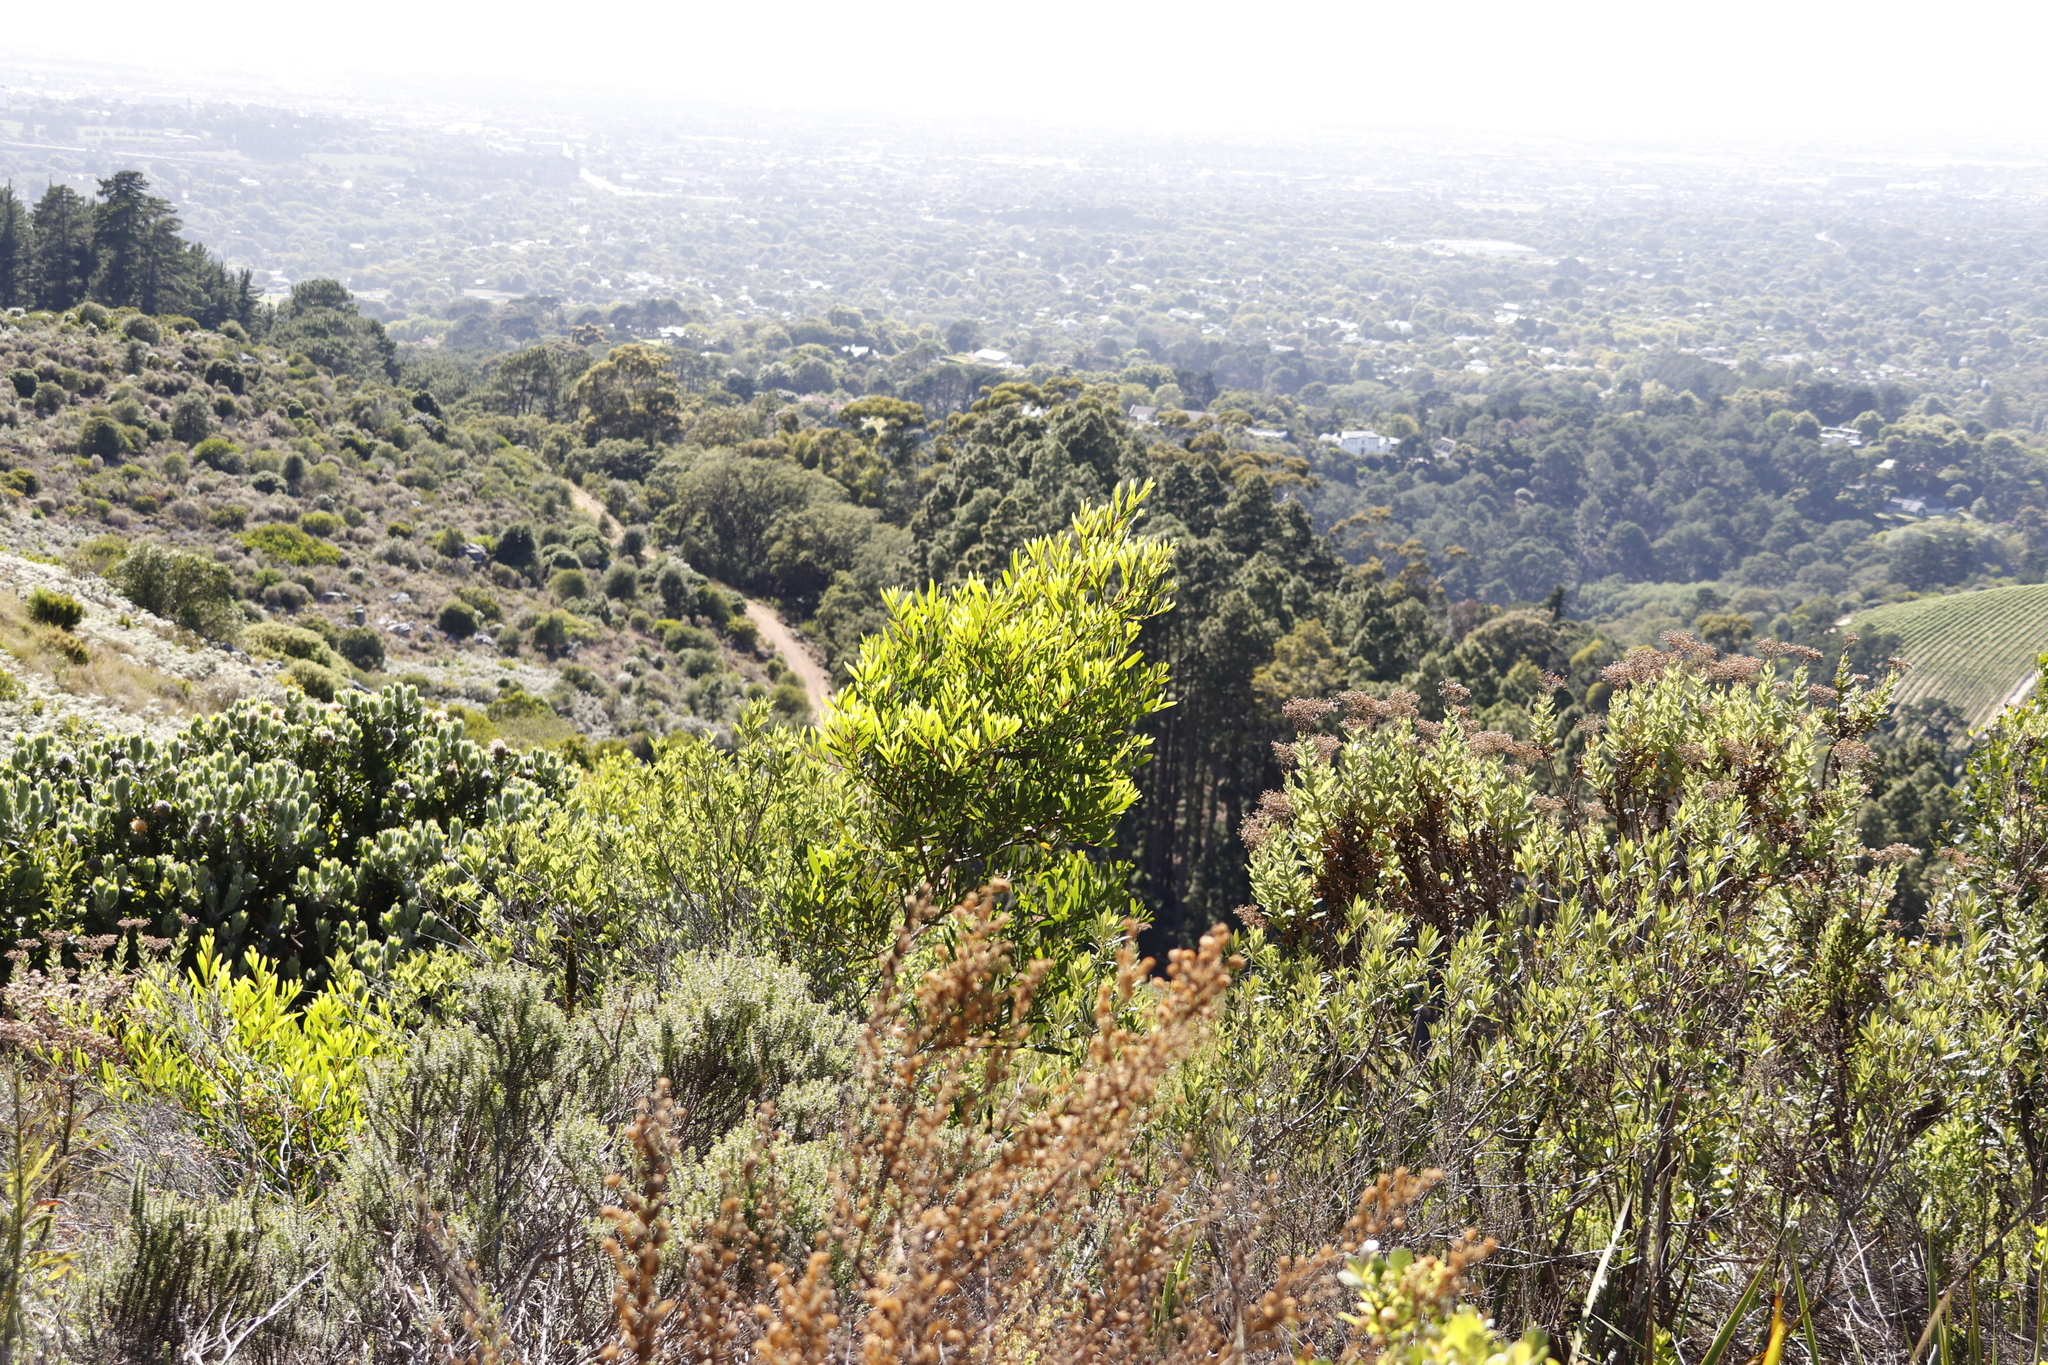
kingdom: Plantae
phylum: Tracheophyta
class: Magnoliopsida
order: Fabales
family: Fabaceae
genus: Acacia
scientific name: Acacia longifolia
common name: Sydney golden wattle
